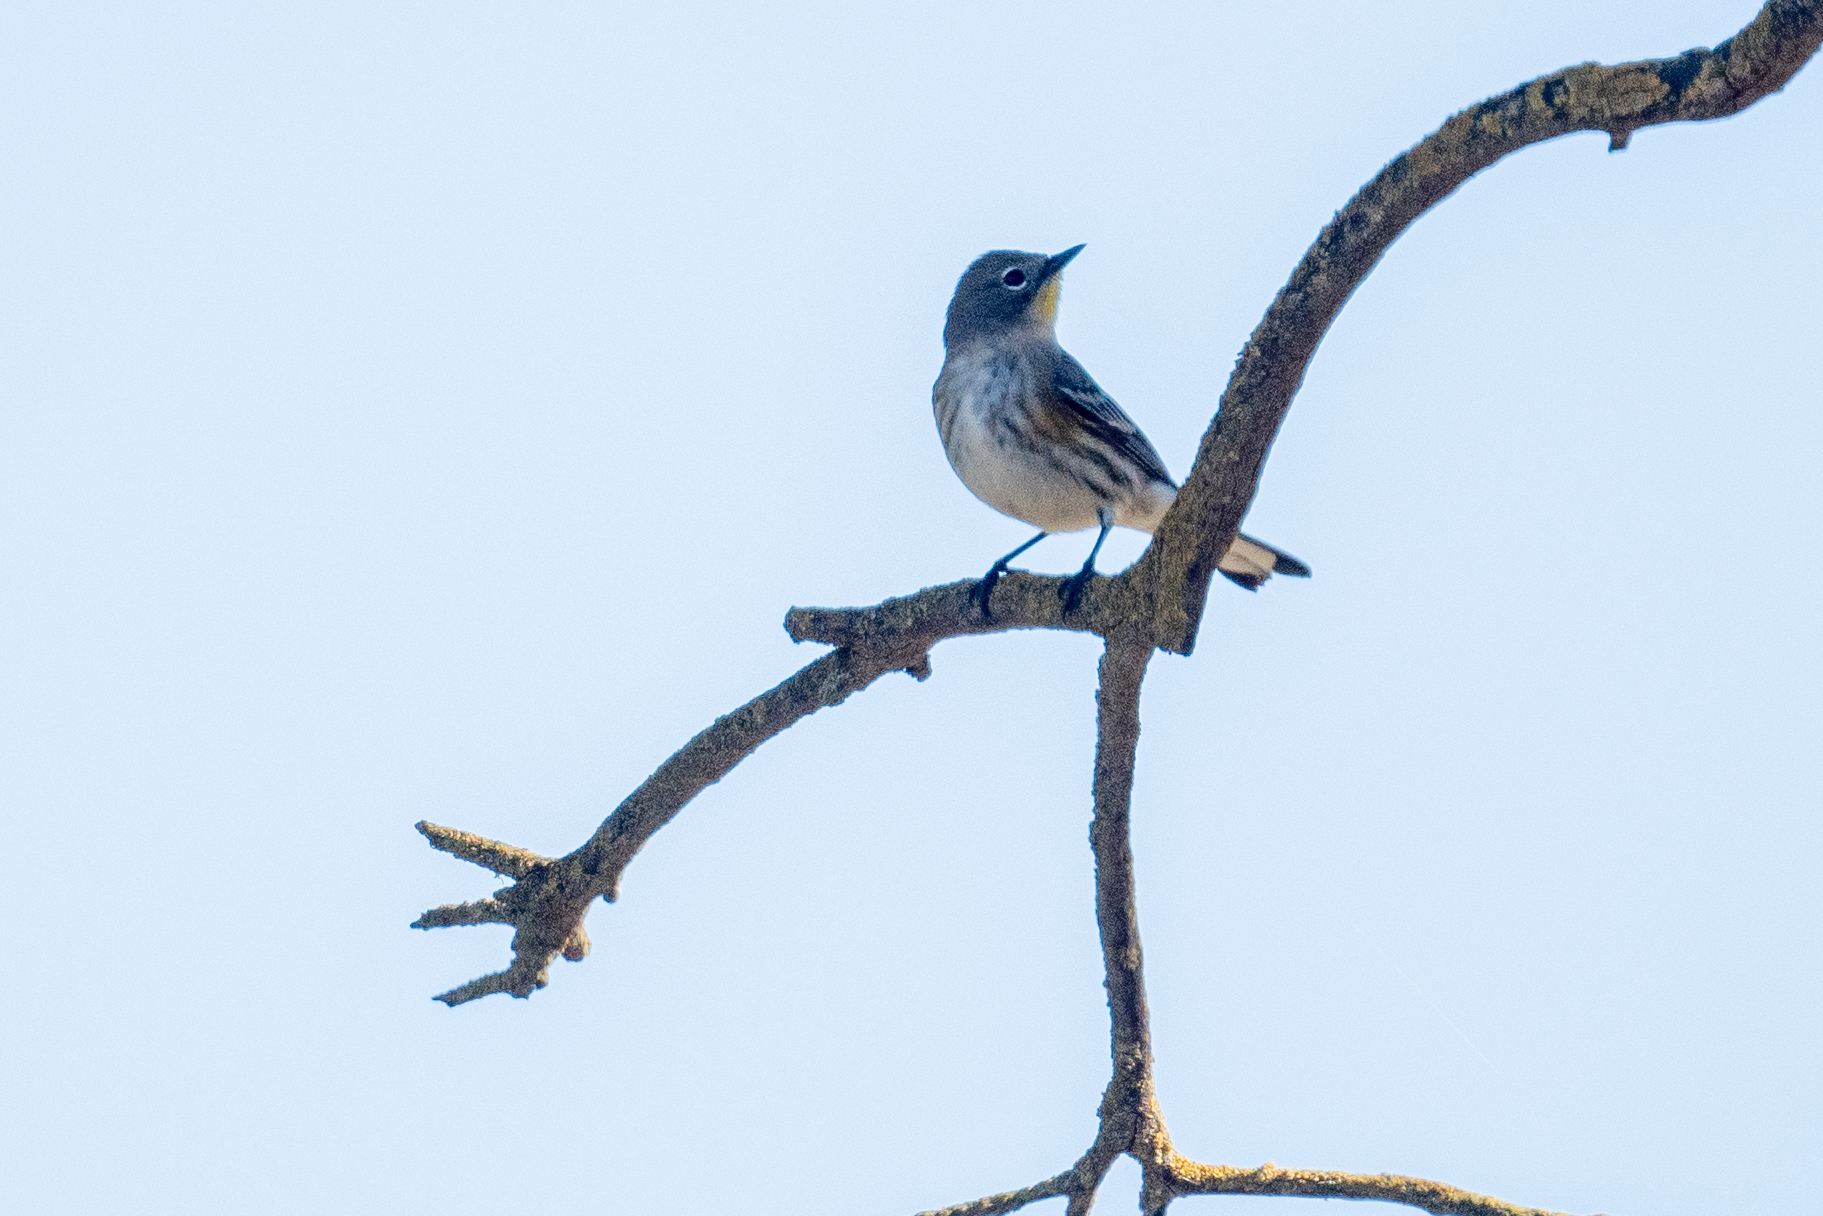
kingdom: Animalia
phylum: Chordata
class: Aves
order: Passeriformes
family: Parulidae
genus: Setophaga
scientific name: Setophaga coronata
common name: Myrtle warbler
